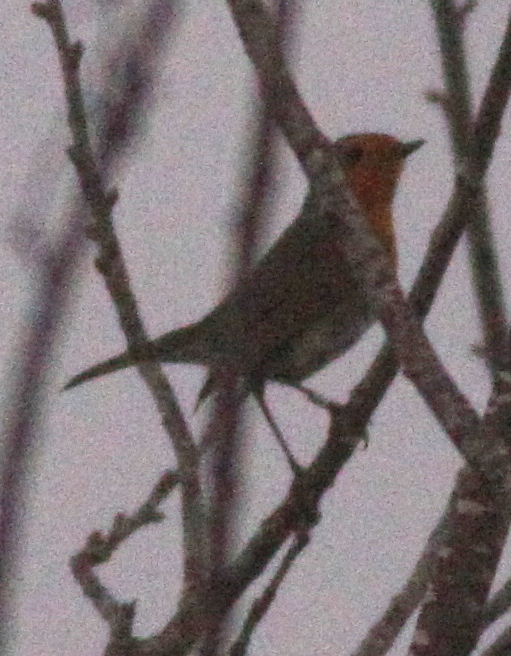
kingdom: Animalia
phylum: Chordata
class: Aves
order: Passeriformes
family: Muscicapidae
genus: Erithacus
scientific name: Erithacus rubecula
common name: European robin
